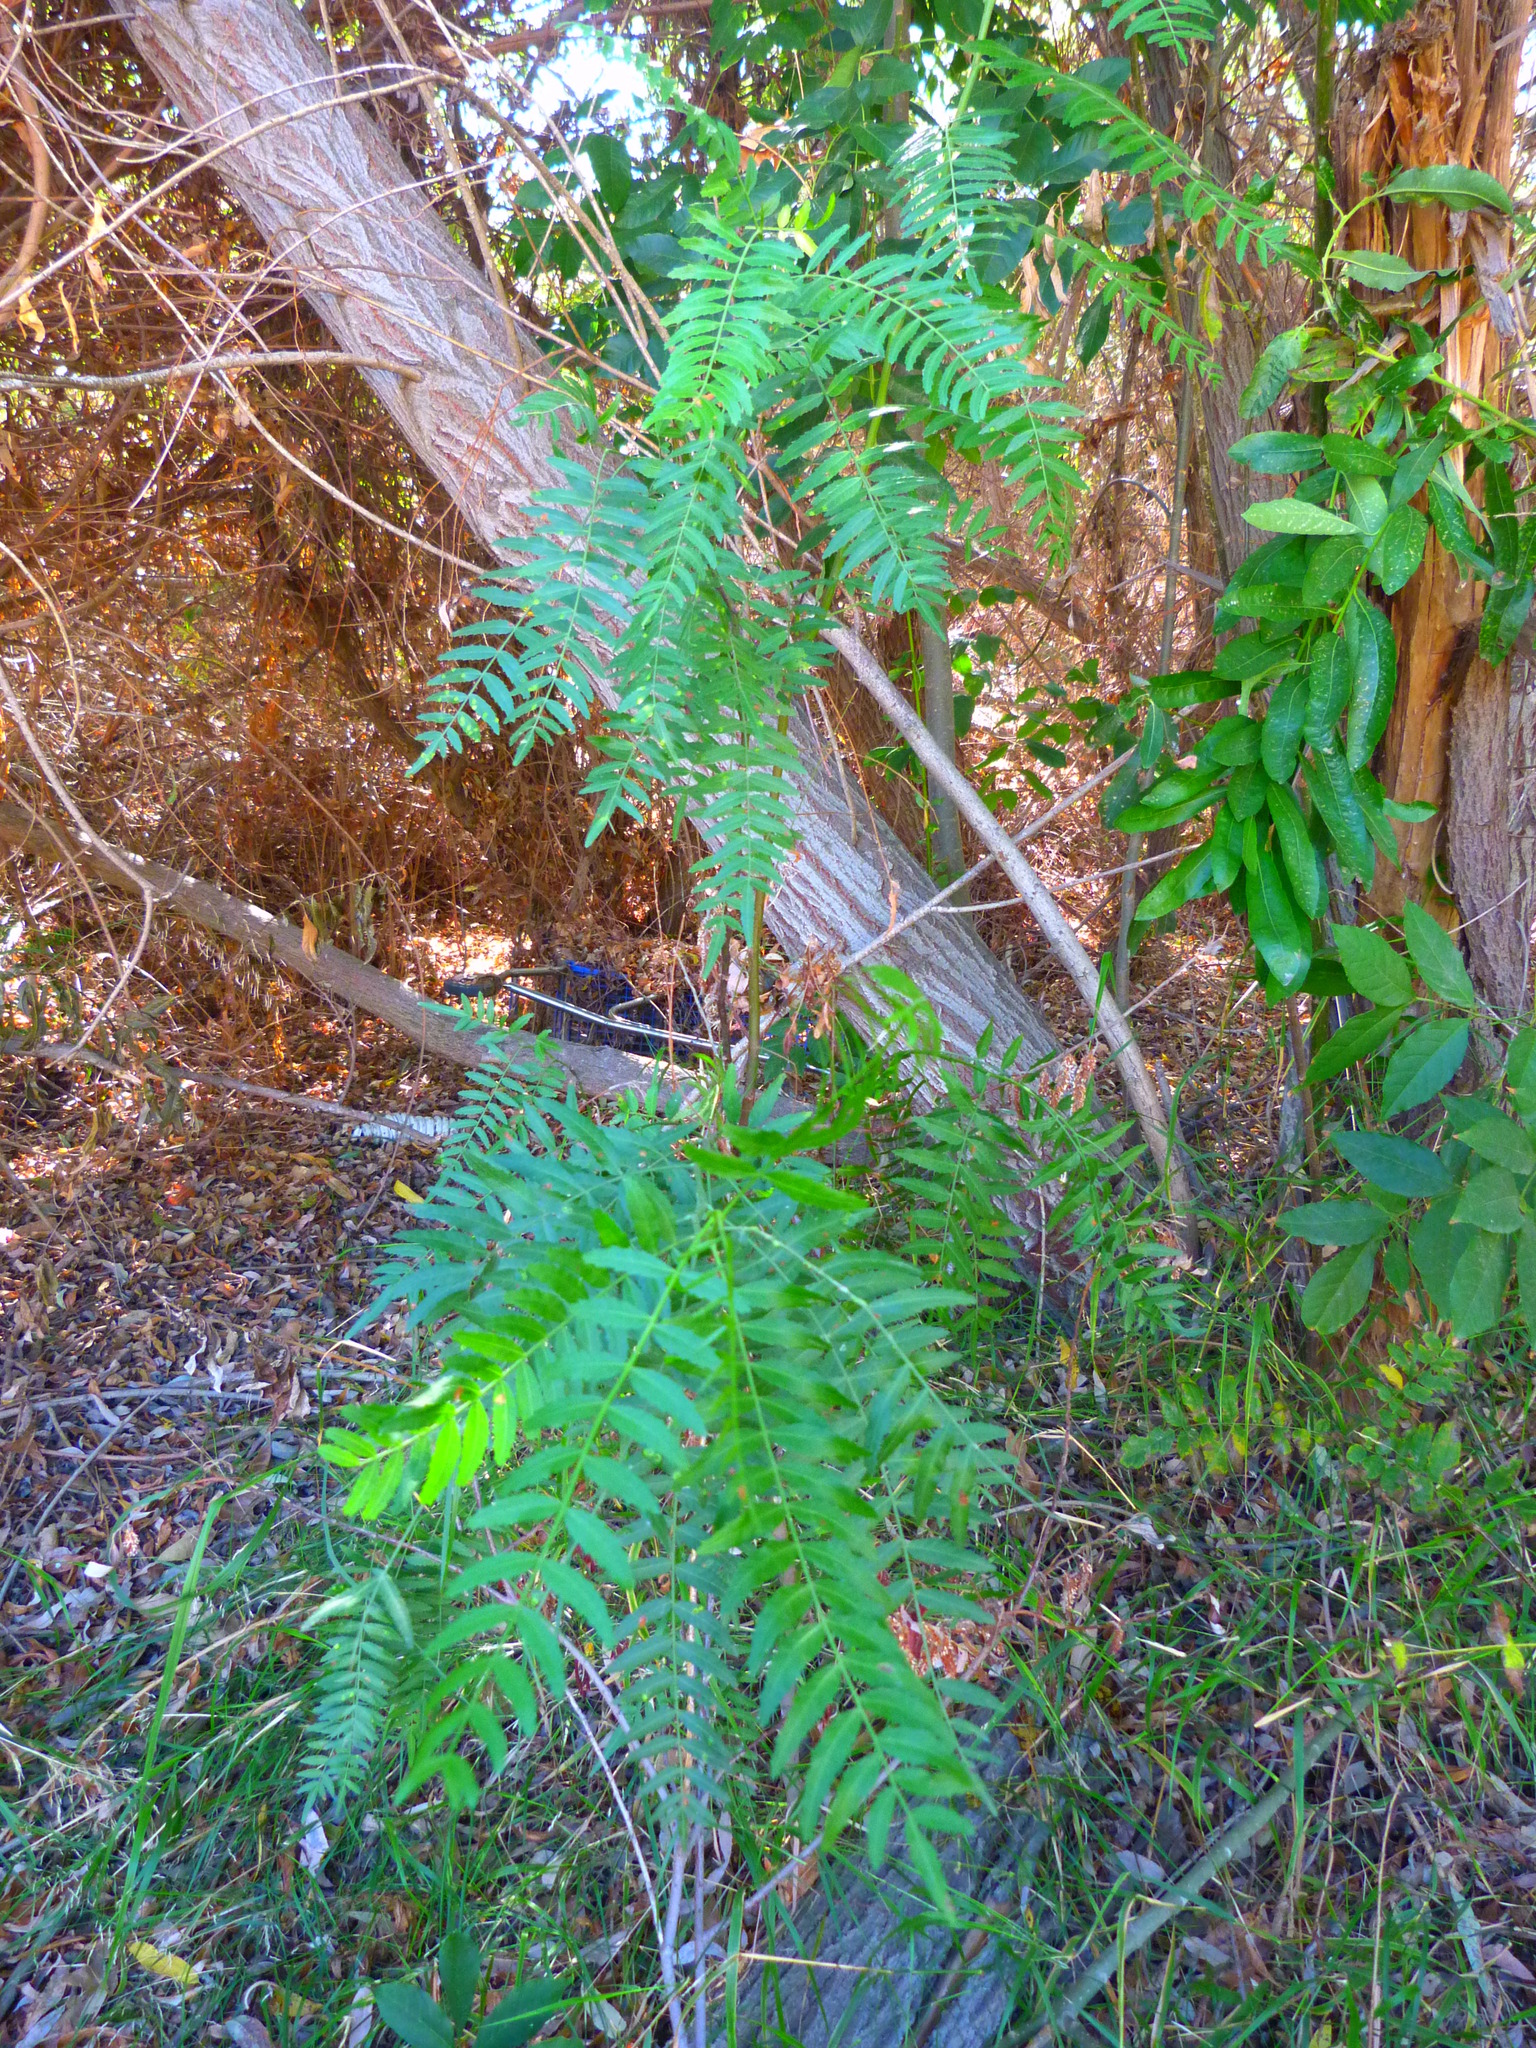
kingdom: Plantae
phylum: Tracheophyta
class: Magnoliopsida
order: Sapindales
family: Anacardiaceae
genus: Schinus
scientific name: Schinus molle
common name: Peruvian peppertree
